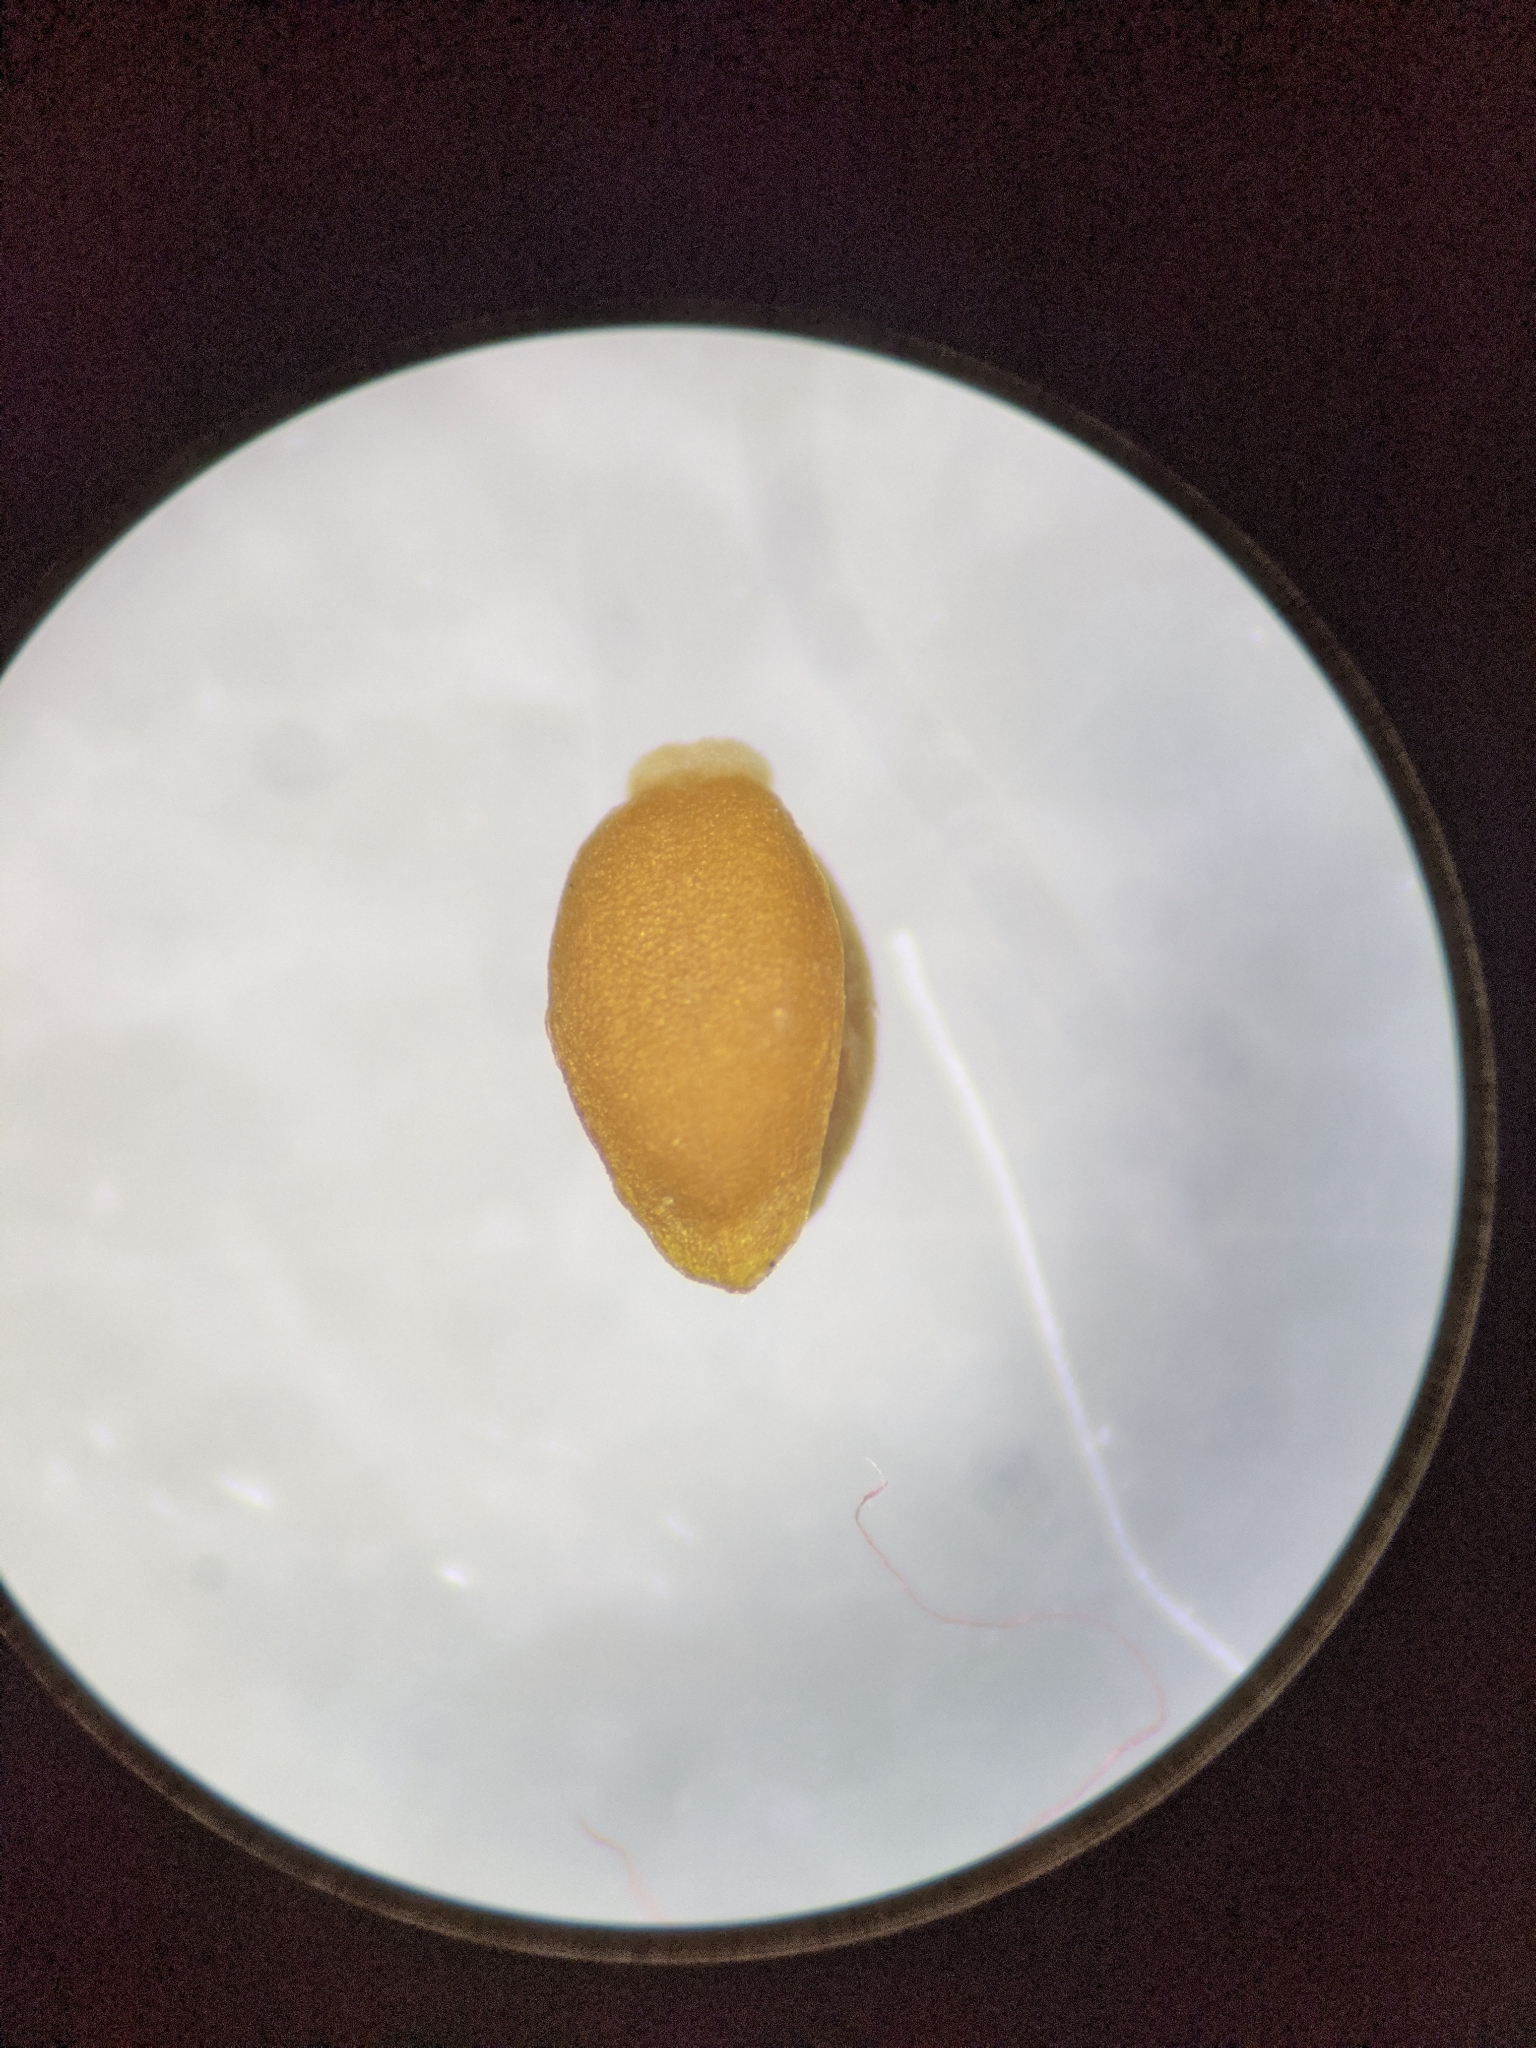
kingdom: Plantae
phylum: Tracheophyta
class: Magnoliopsida
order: Dipsacales
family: Caprifoliaceae
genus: Valerianella
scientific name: Valerianella radiata
